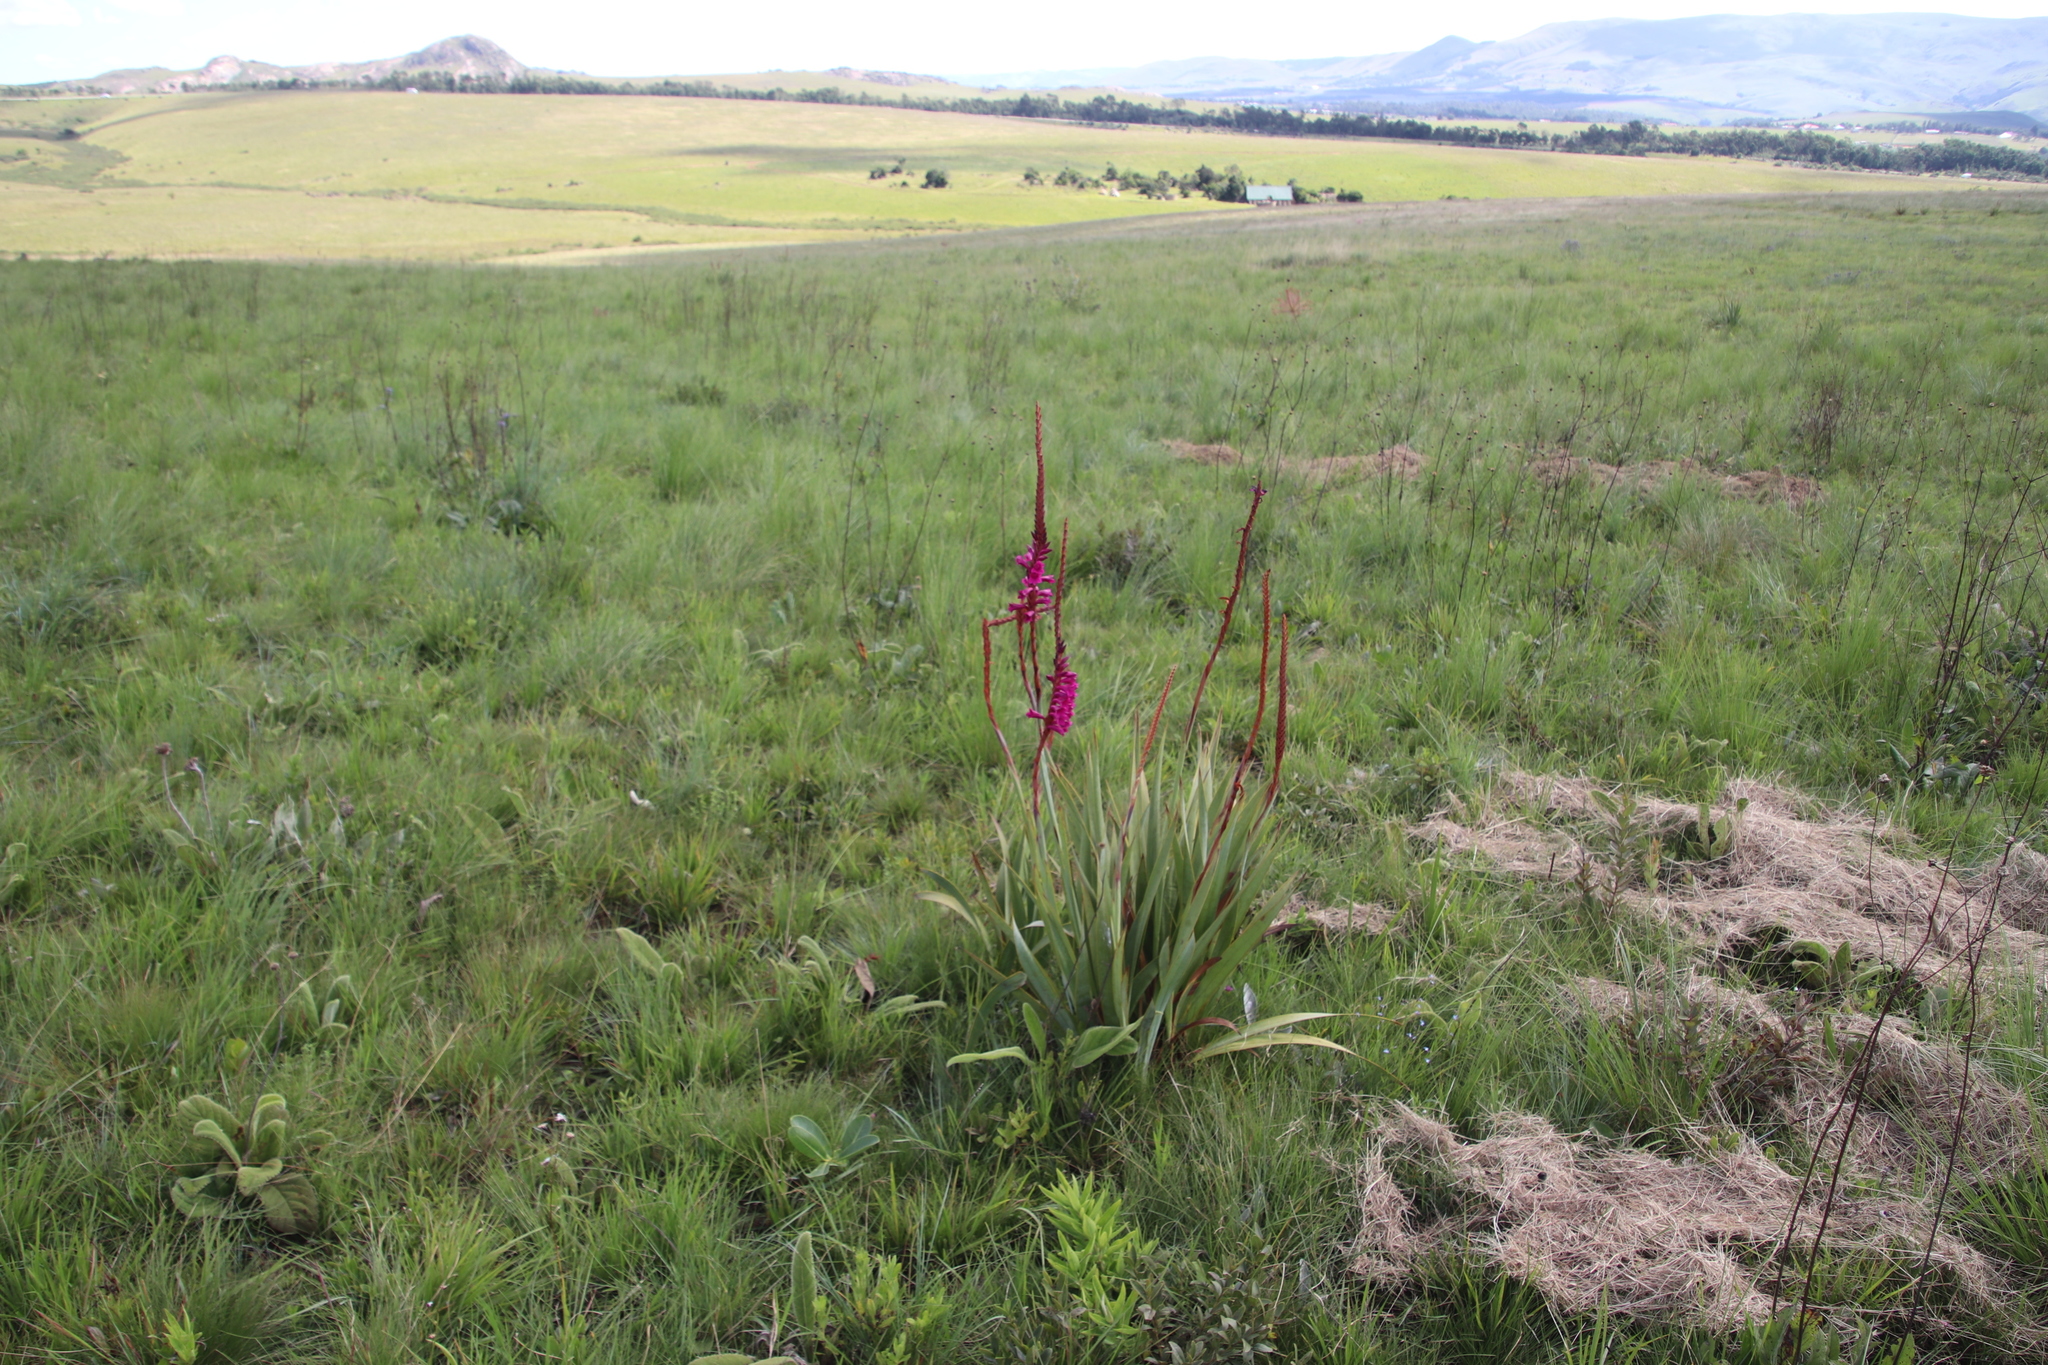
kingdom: Plantae
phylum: Tracheophyta
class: Liliopsida
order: Asparagales
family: Iridaceae
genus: Watsonia
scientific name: Watsonia pulchra
